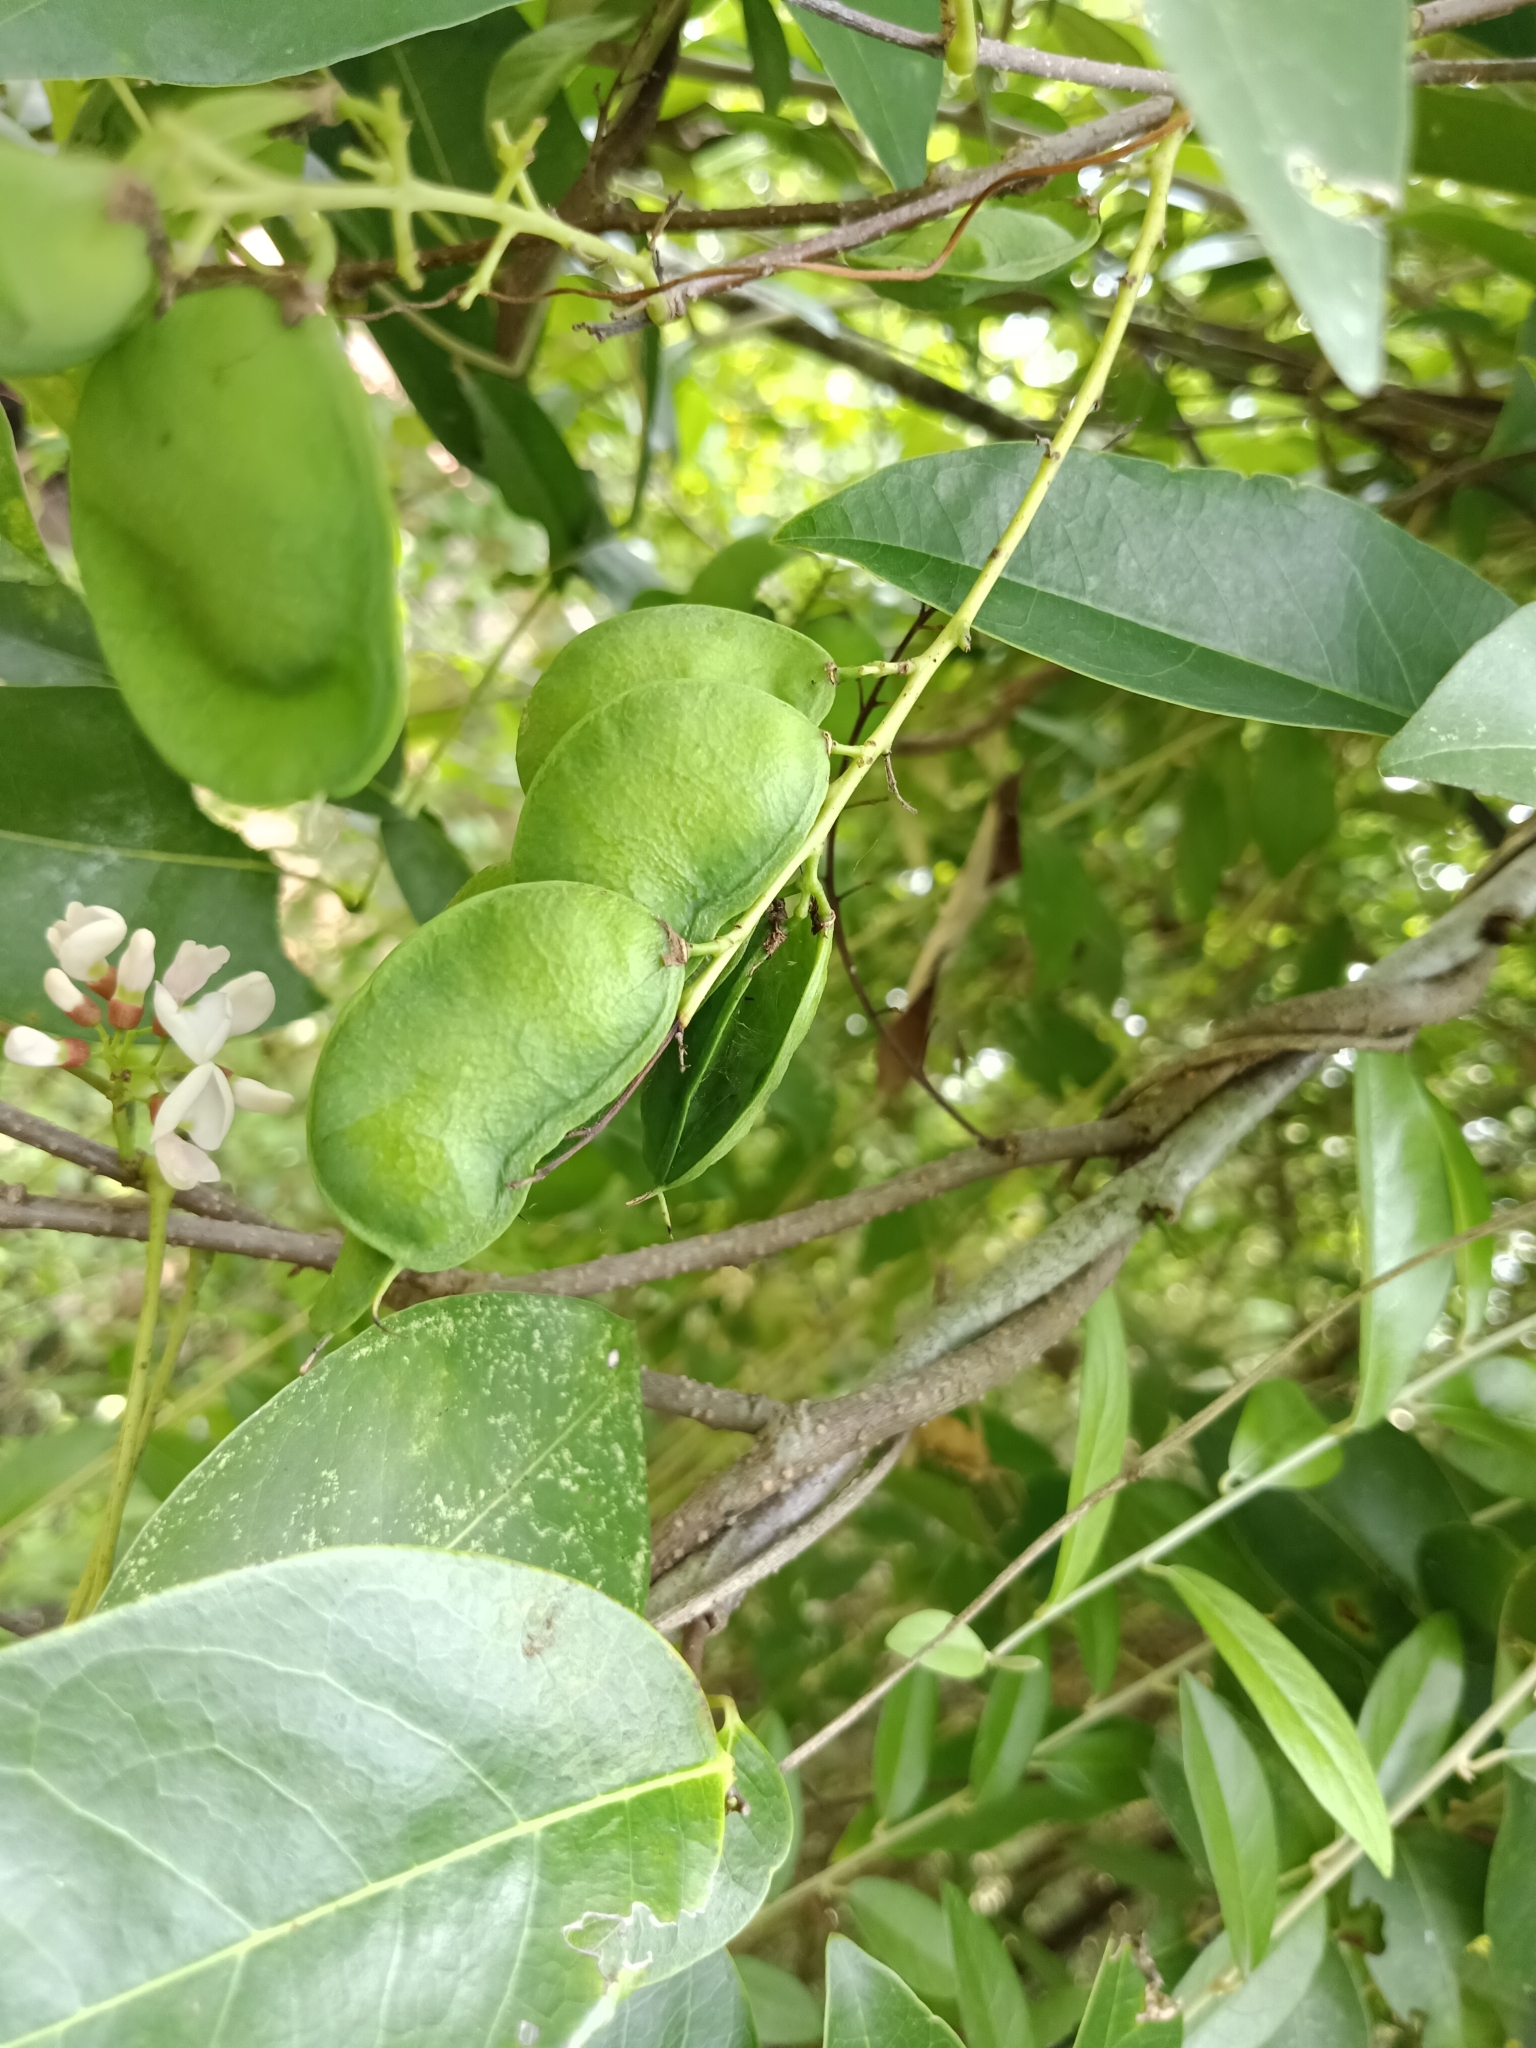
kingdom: Plantae
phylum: Tracheophyta
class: Magnoliopsida
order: Fabales
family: Fabaceae
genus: Derris
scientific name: Derris trifoliata
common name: Three-leaf derris
